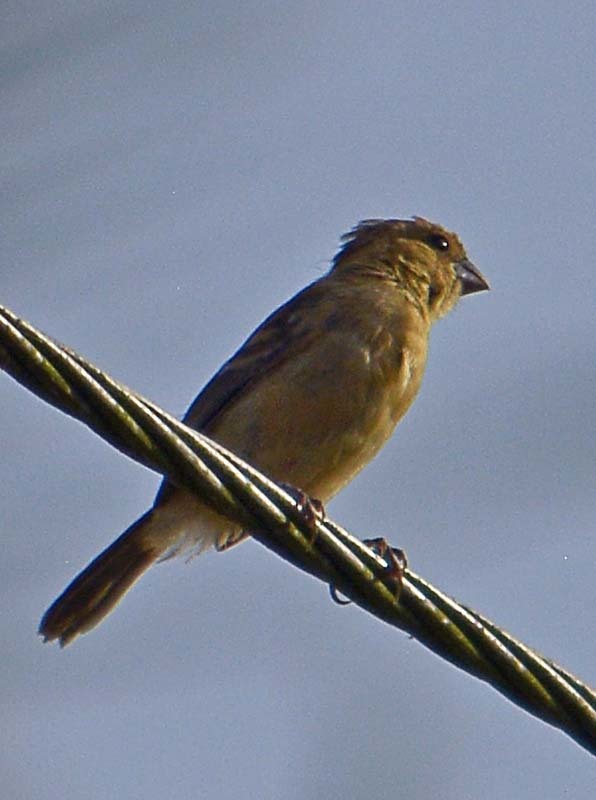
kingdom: Animalia
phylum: Chordata
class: Aves
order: Passeriformes
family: Thraupidae
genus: Sporophila
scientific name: Sporophila morelleti
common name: Morelet's seedeater
